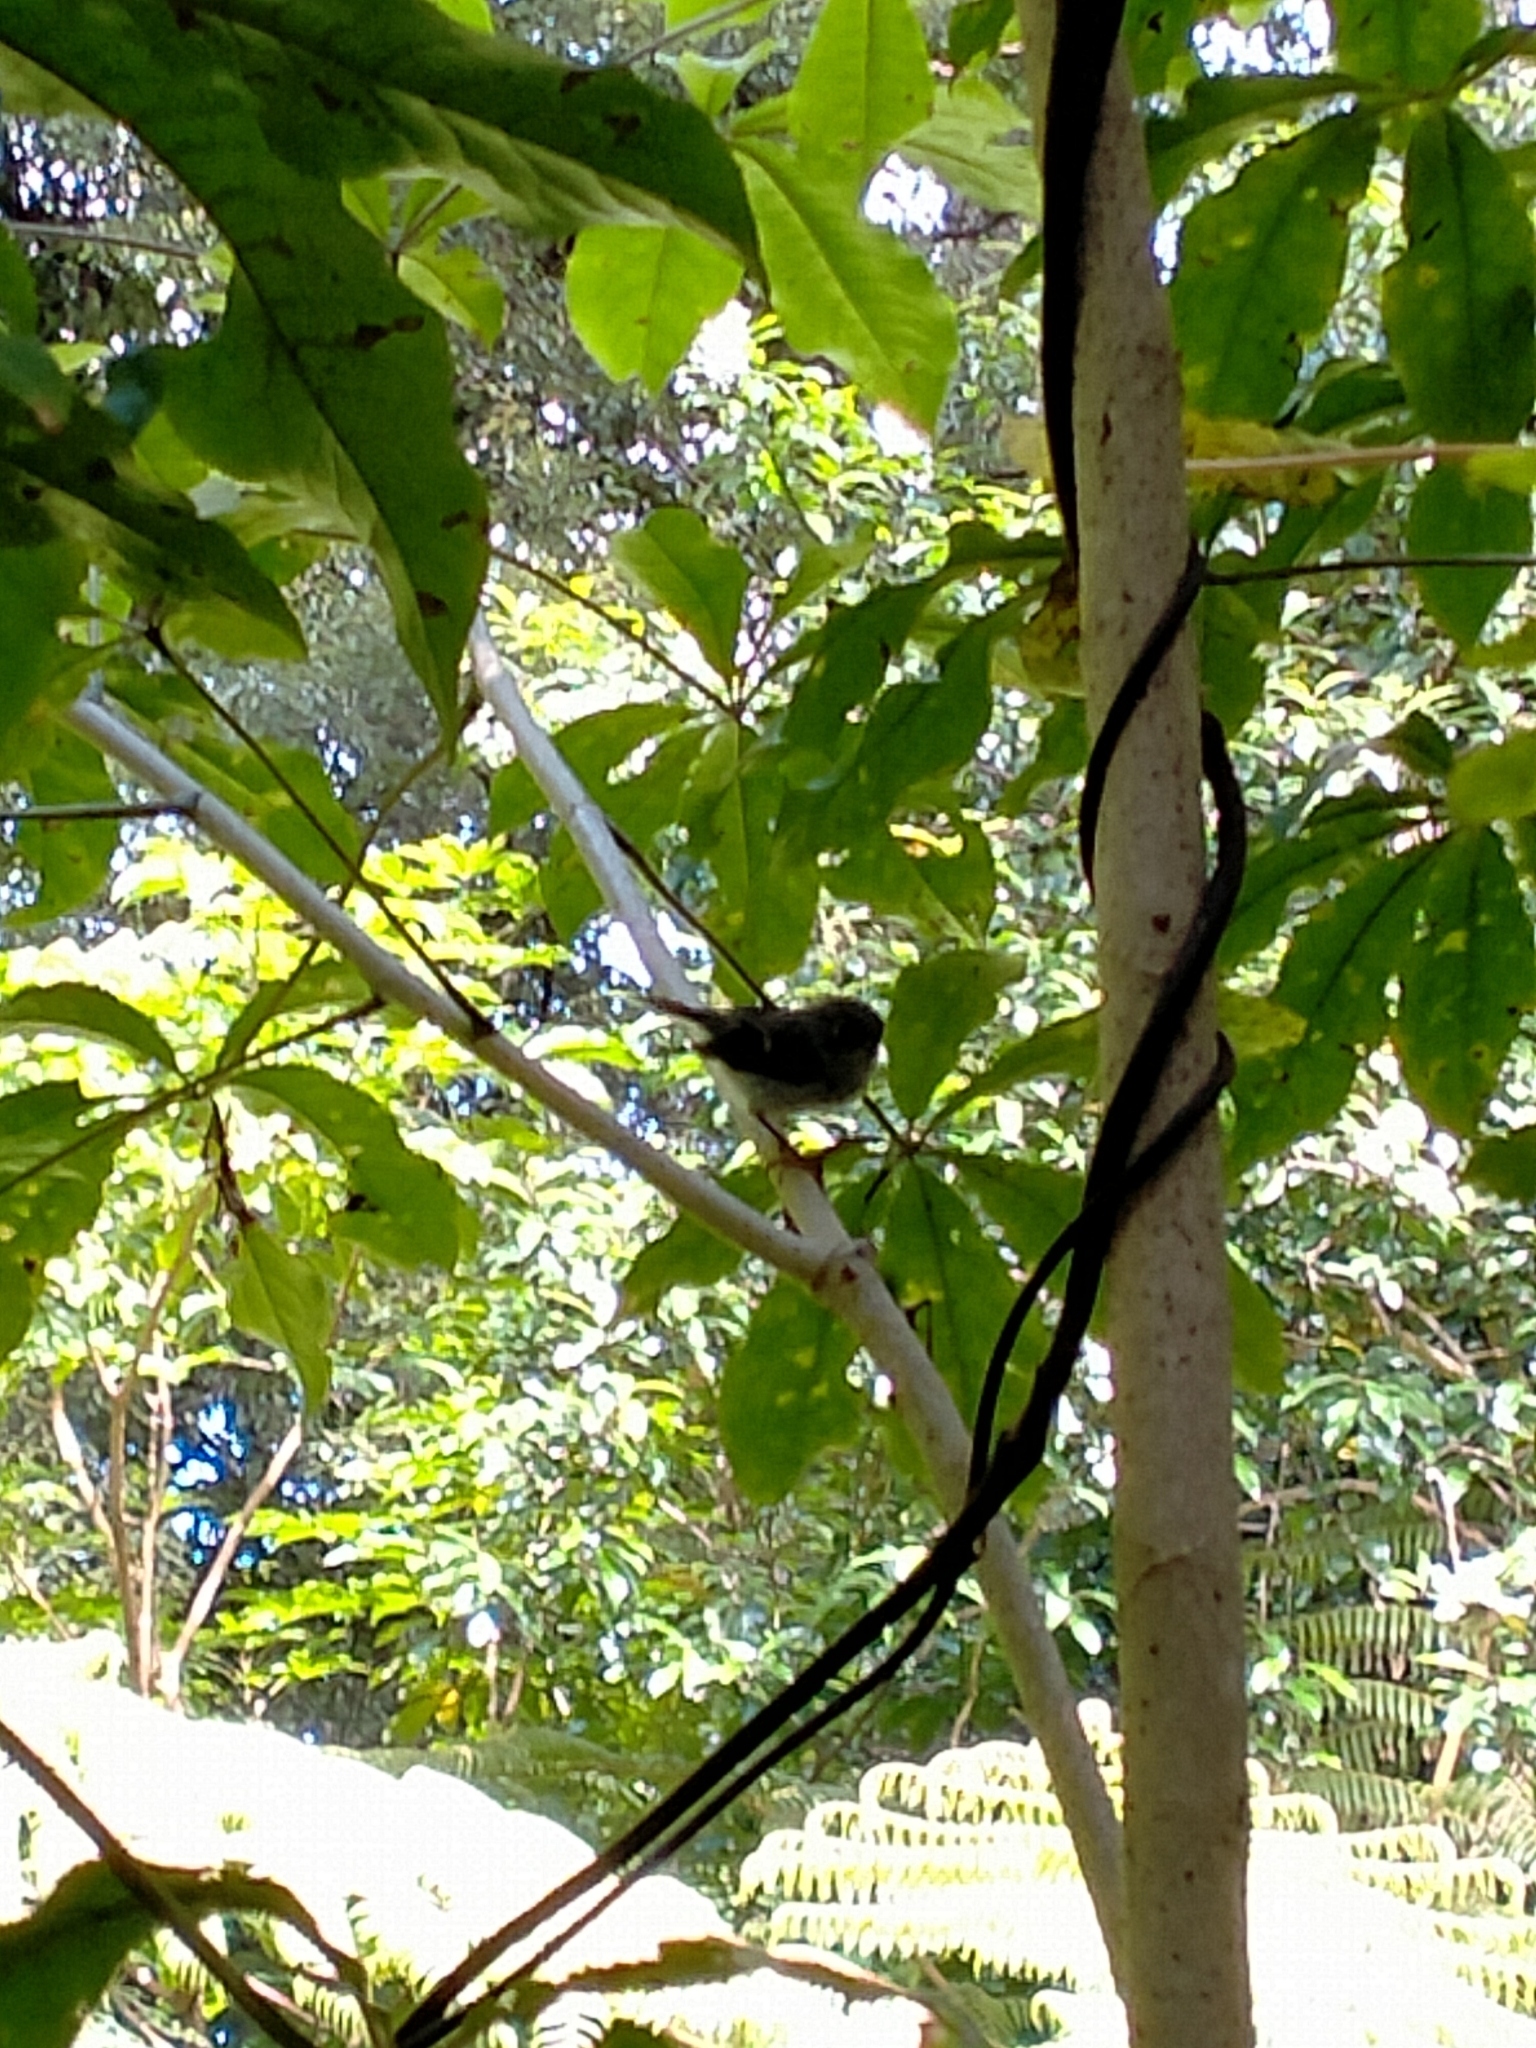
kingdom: Animalia
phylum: Chordata
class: Aves
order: Passeriformes
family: Acanthizidae
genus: Gerygone
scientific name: Gerygone igata
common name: Grey gerygone
